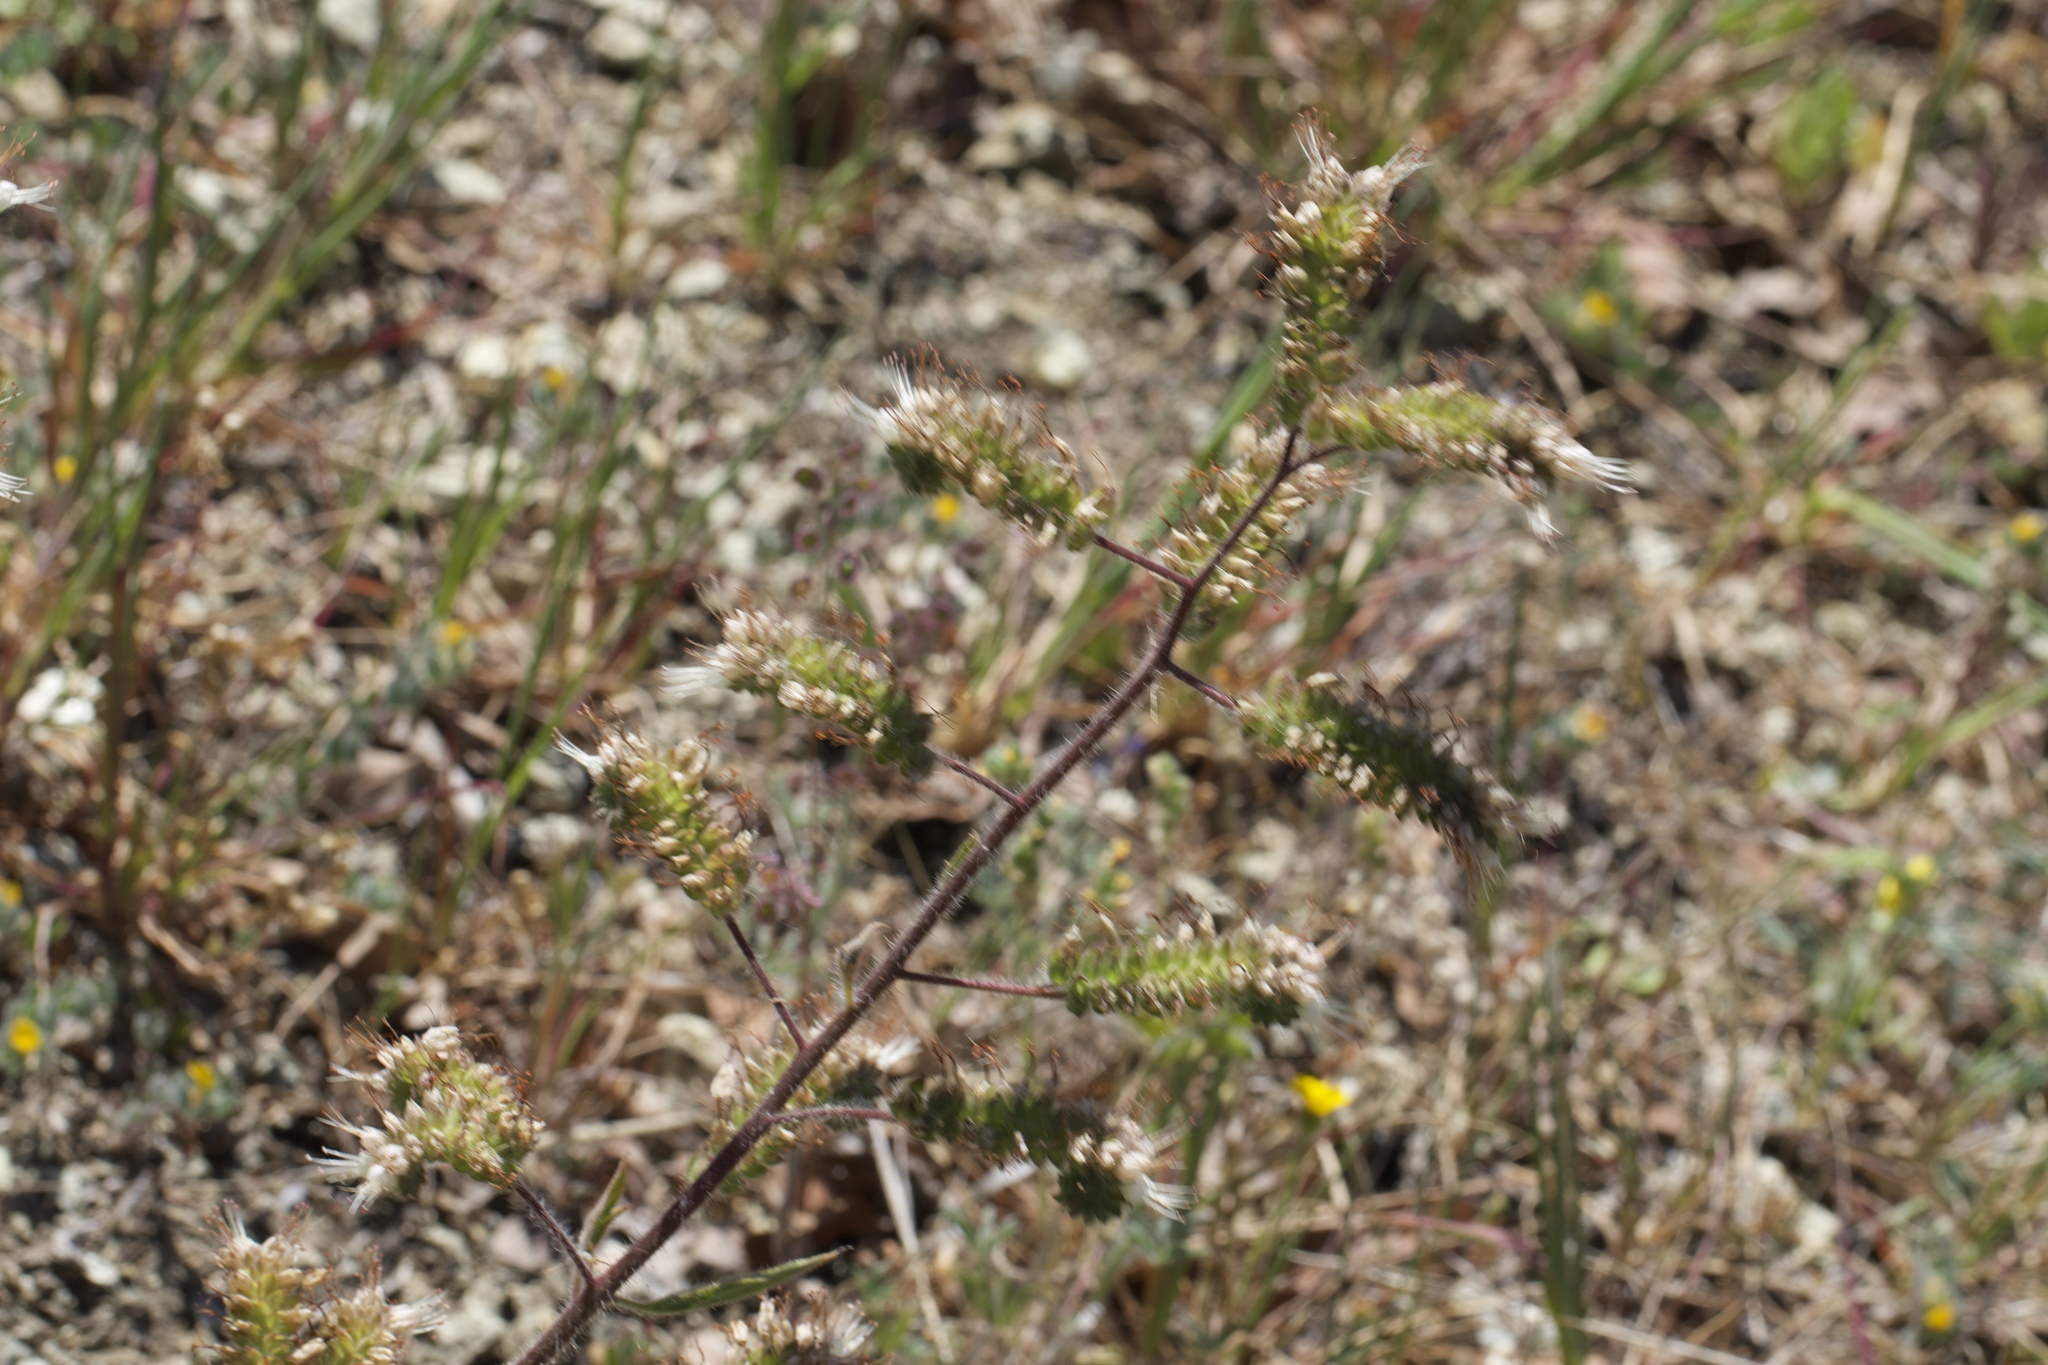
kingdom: Plantae
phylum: Tracheophyta
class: Magnoliopsida
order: Boraginales
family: Hydrophyllaceae
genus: Phacelia
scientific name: Phacelia imbricata
